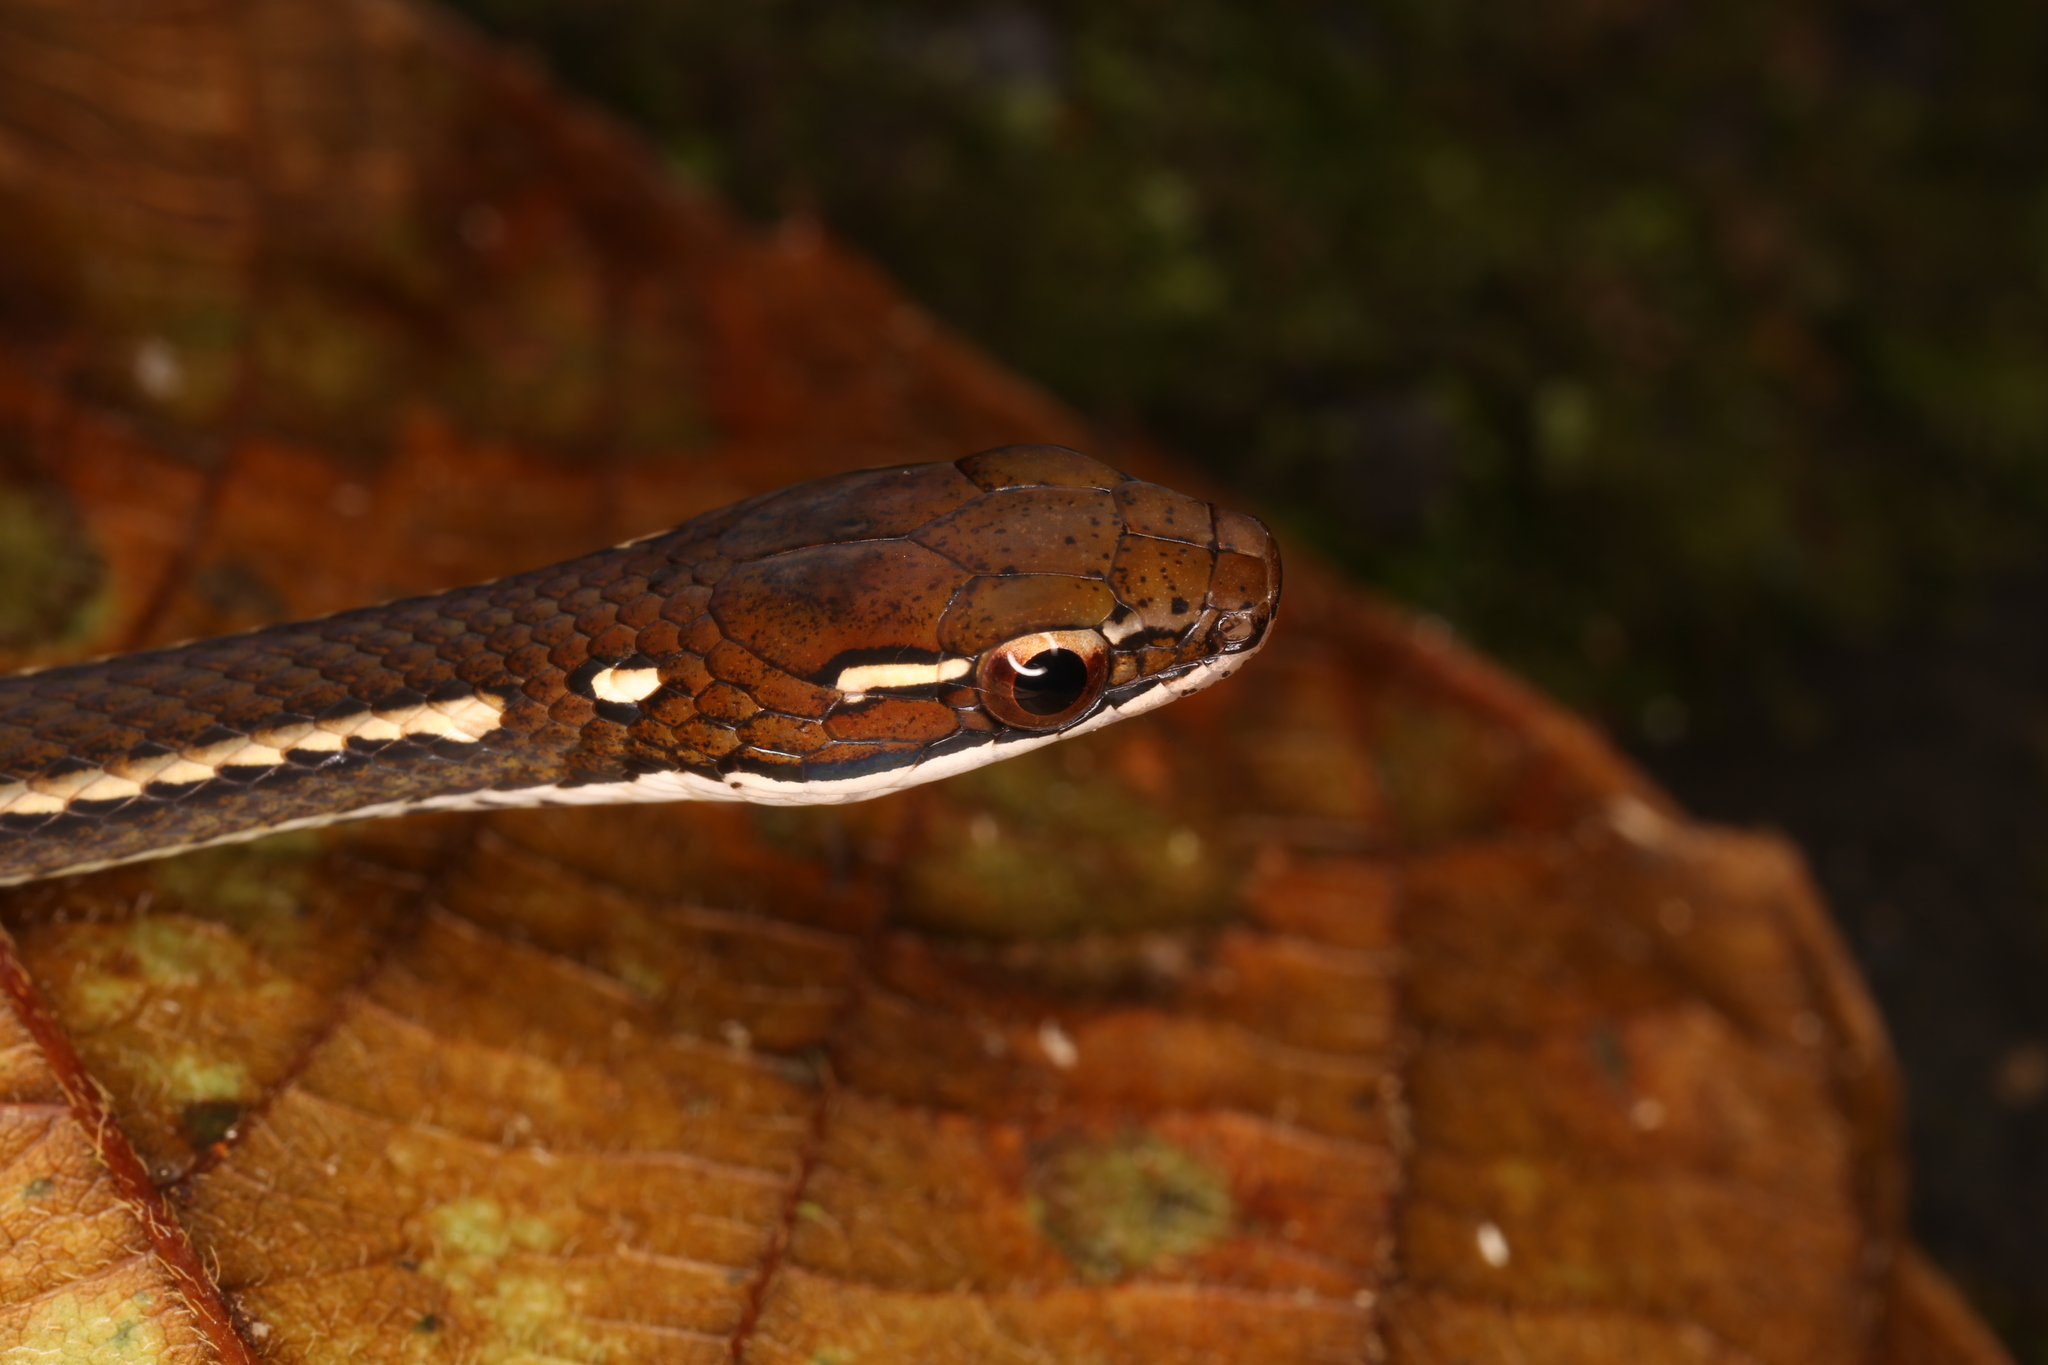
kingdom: Animalia
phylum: Chordata
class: Squamata
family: Colubridae
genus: Rhadinaea
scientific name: Rhadinaea decorata
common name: Adorned graceful brown snake
